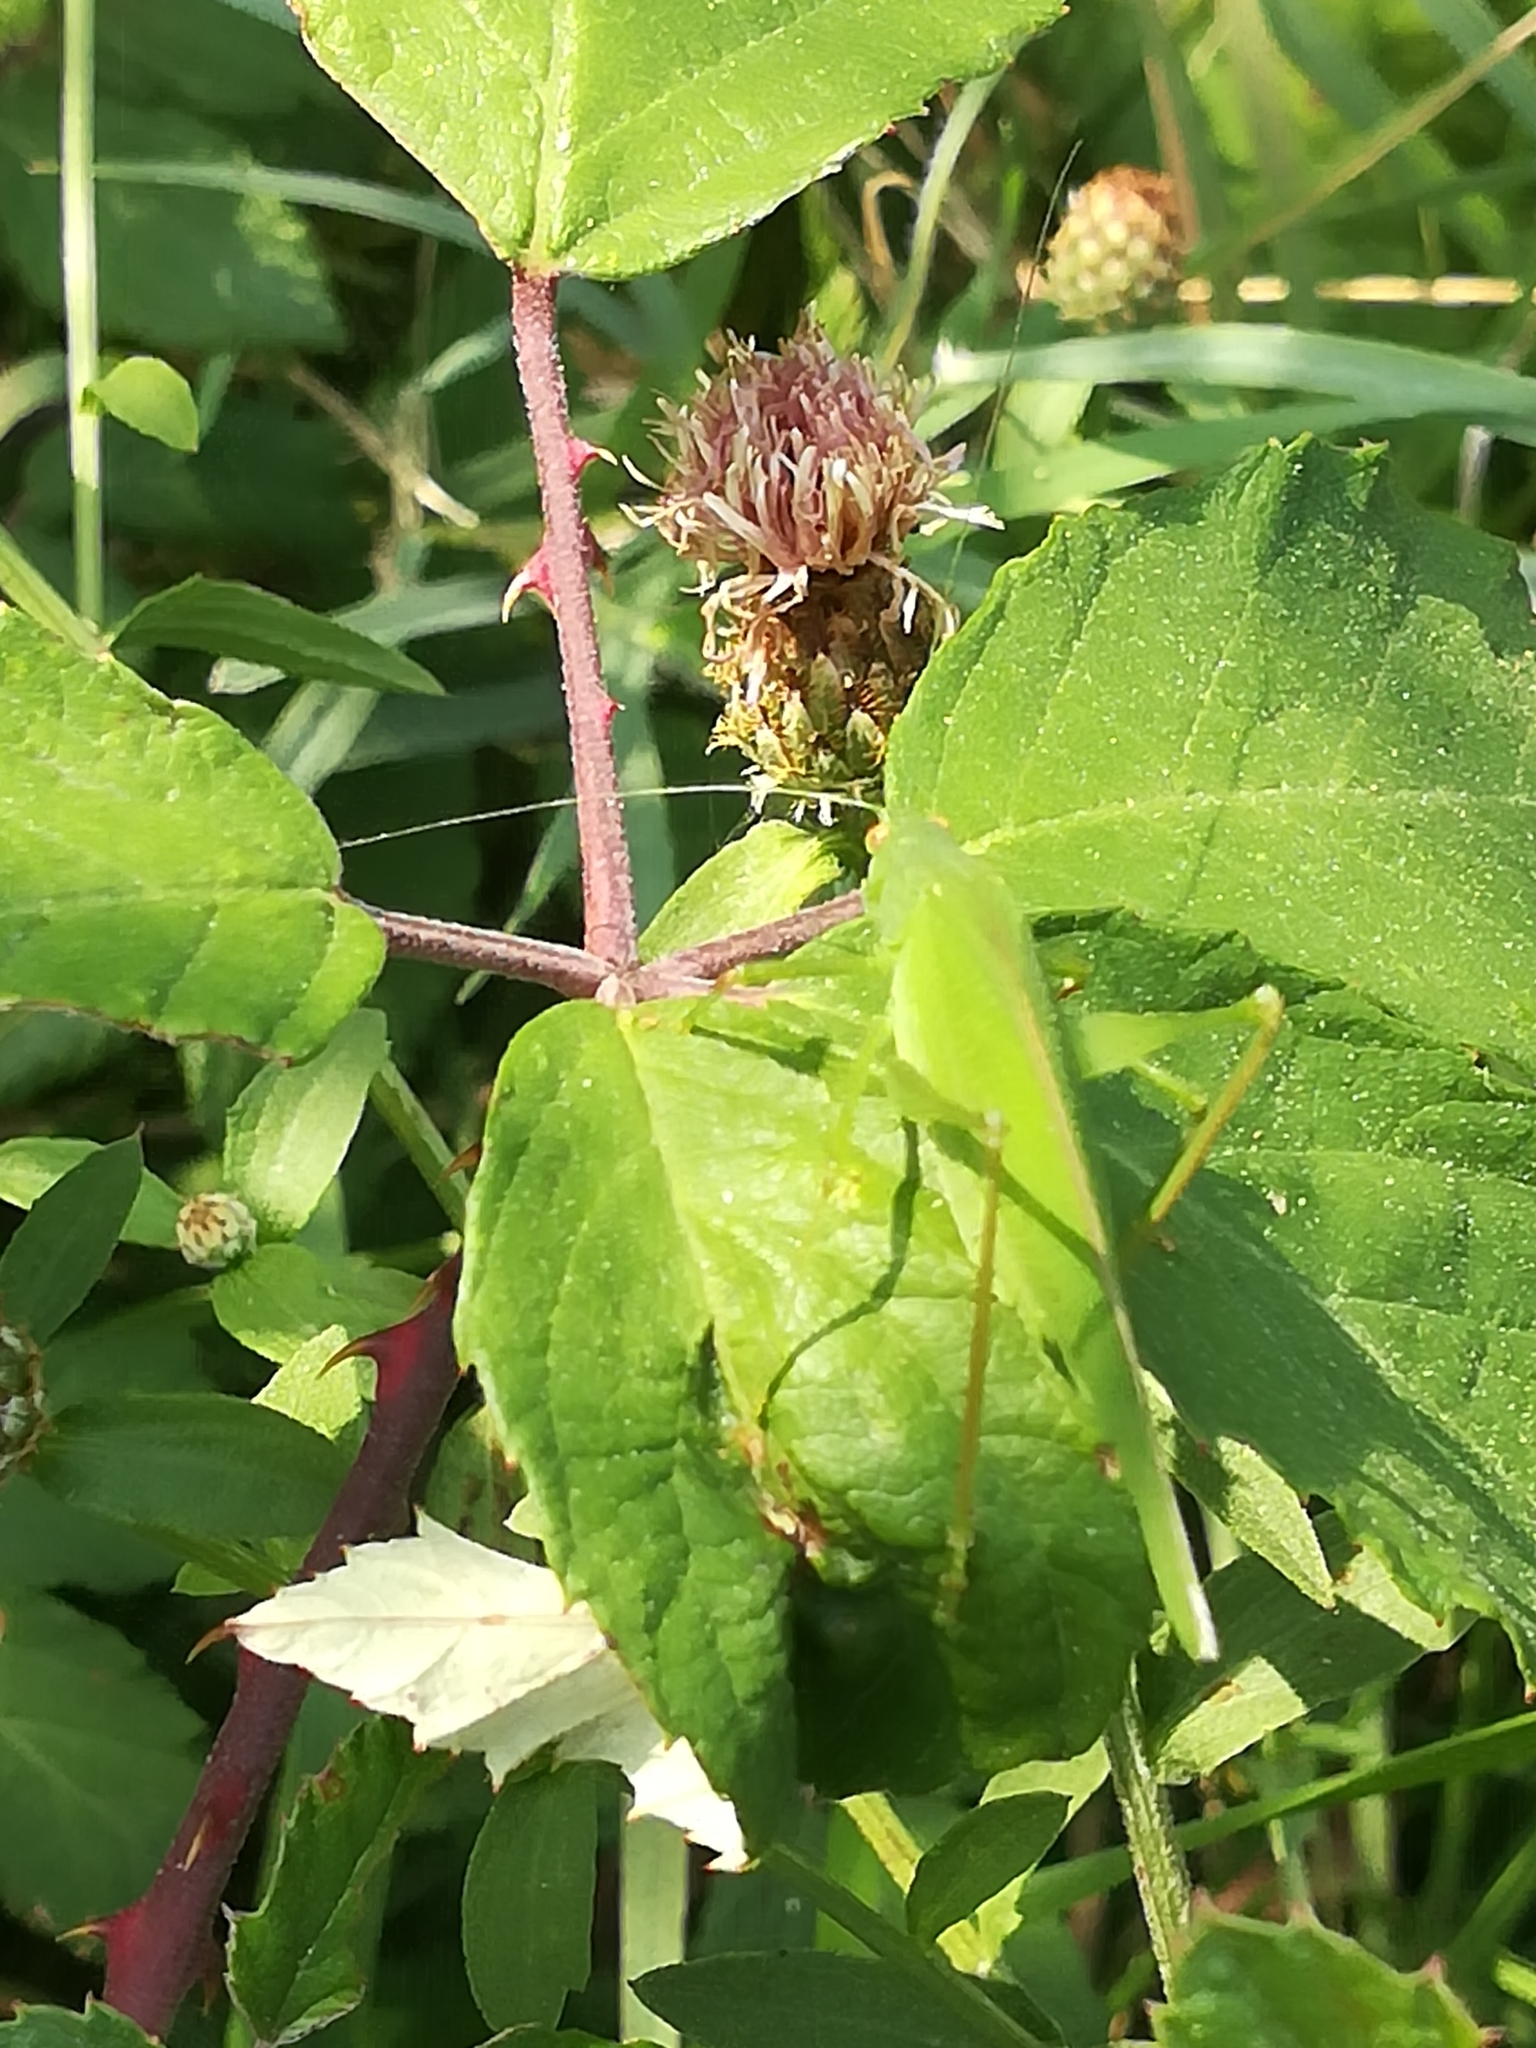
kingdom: Animalia
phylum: Arthropoda
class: Insecta
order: Orthoptera
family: Tettigoniidae
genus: Phaneroptera
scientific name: Phaneroptera nana
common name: Southern sickle bush-cricket
